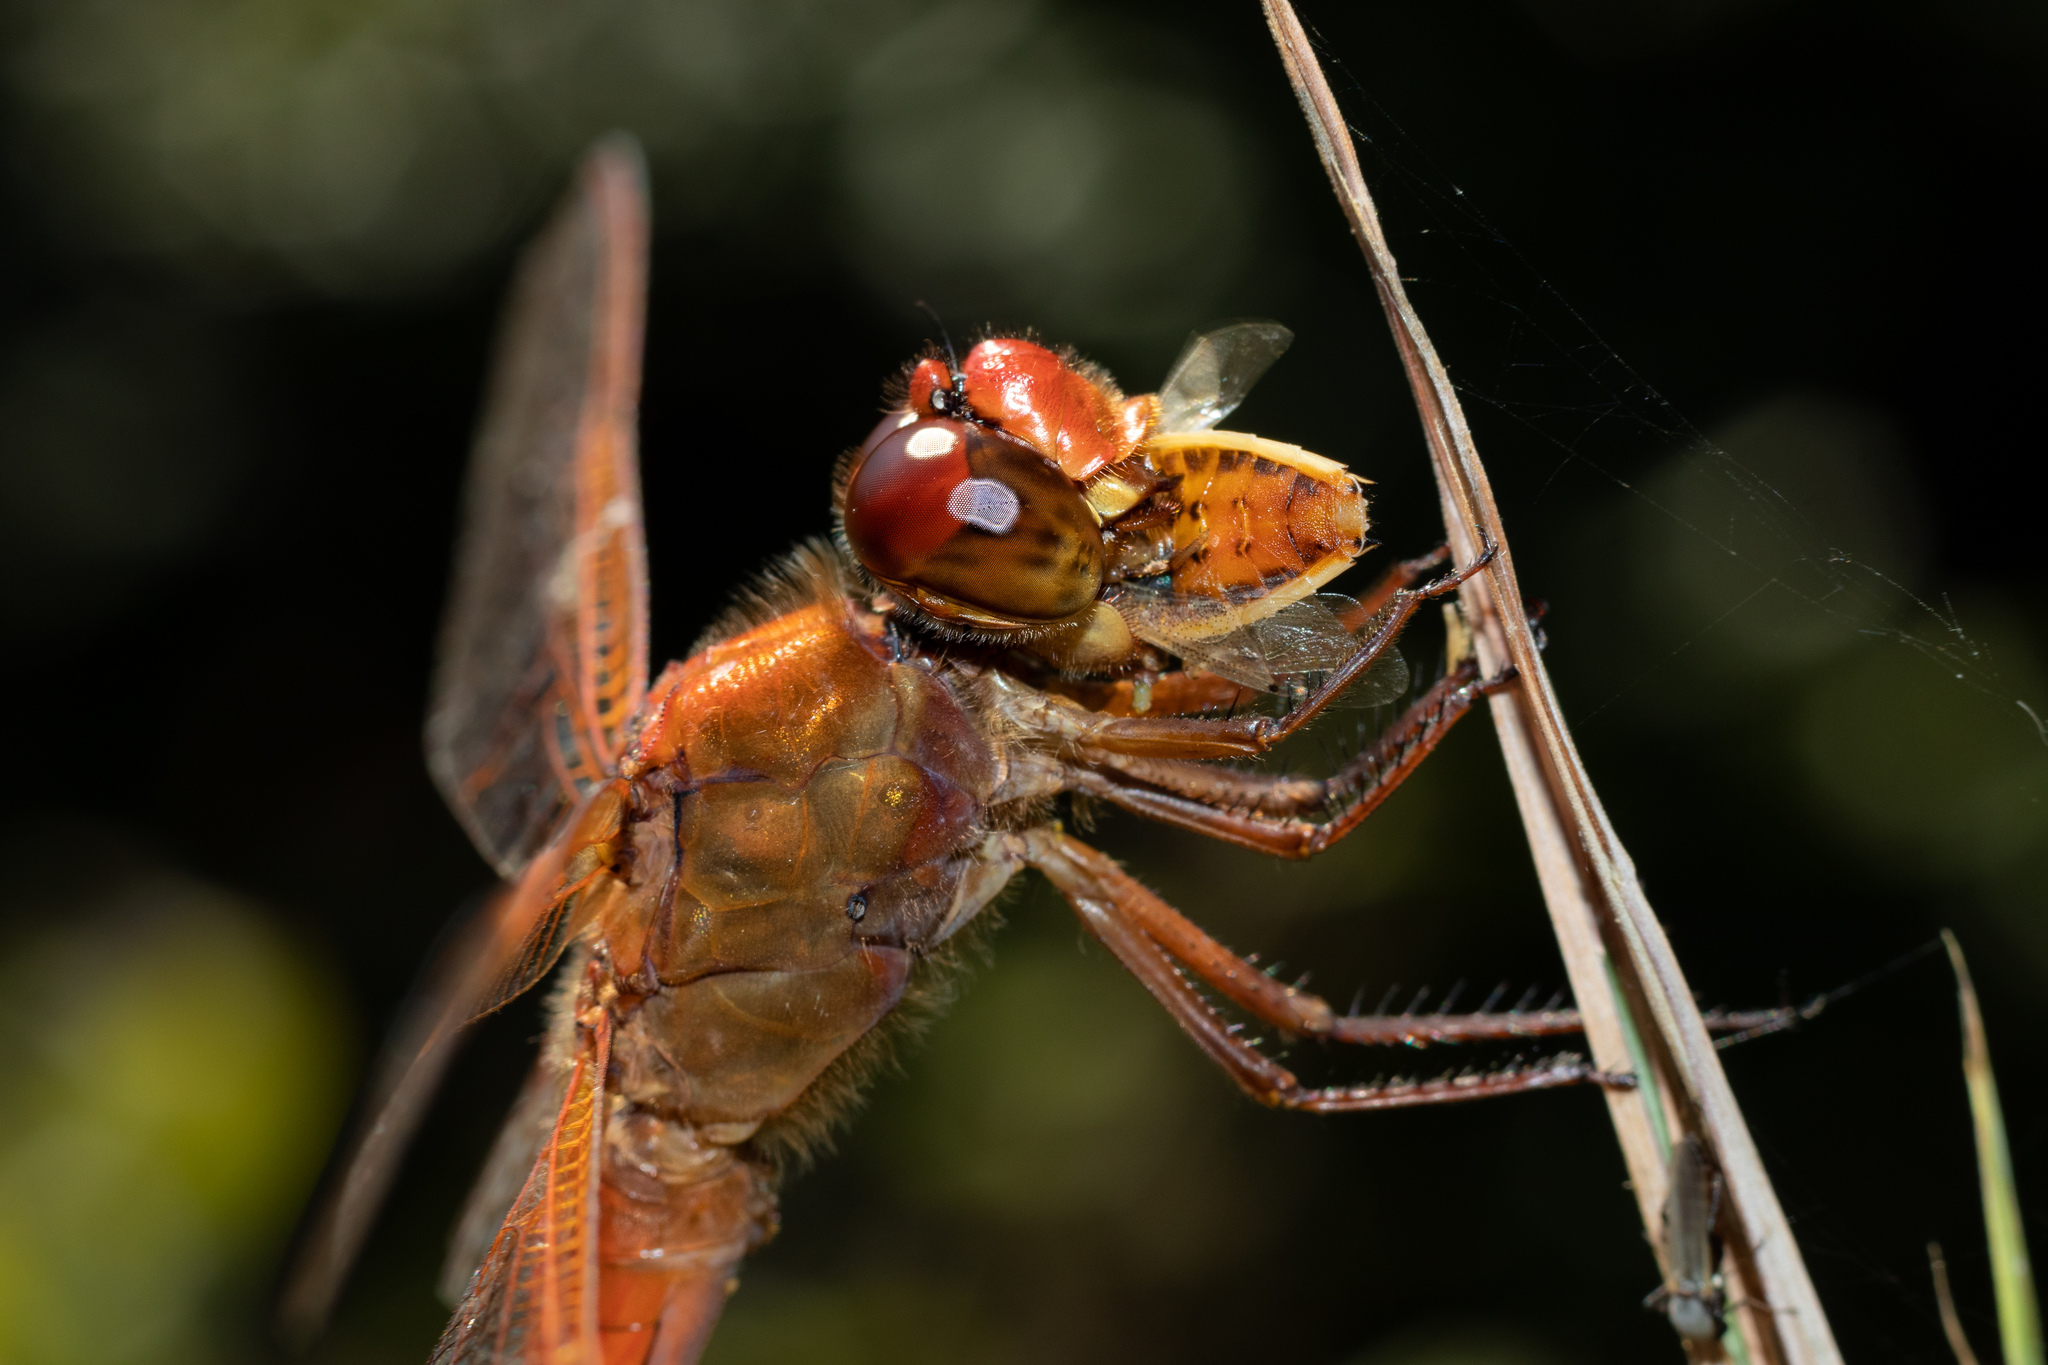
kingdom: Animalia
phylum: Arthropoda
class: Insecta
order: Odonata
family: Libellulidae
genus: Libellula
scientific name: Libellula needhami
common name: Needham's skimmer
